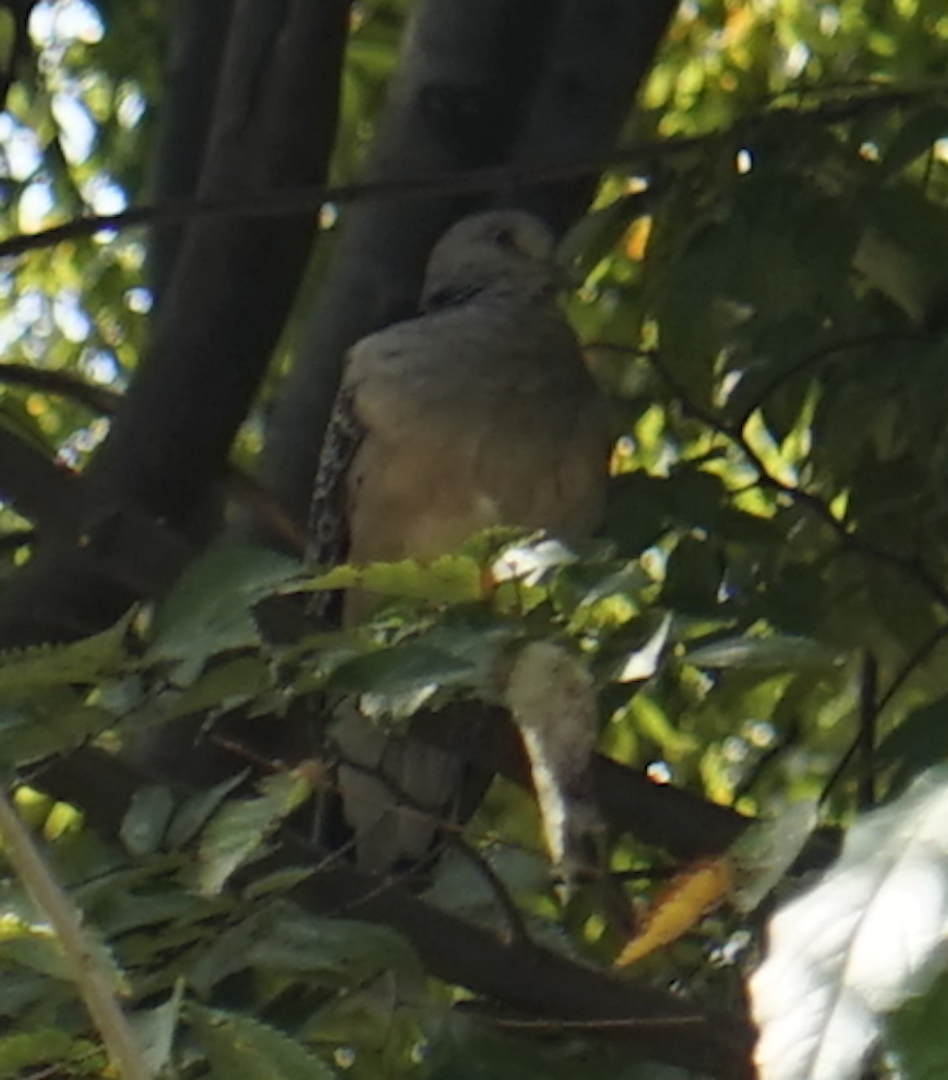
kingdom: Animalia
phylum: Chordata
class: Aves
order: Columbiformes
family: Columbidae
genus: Streptopelia
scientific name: Streptopelia orientalis
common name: Oriental turtle dove
